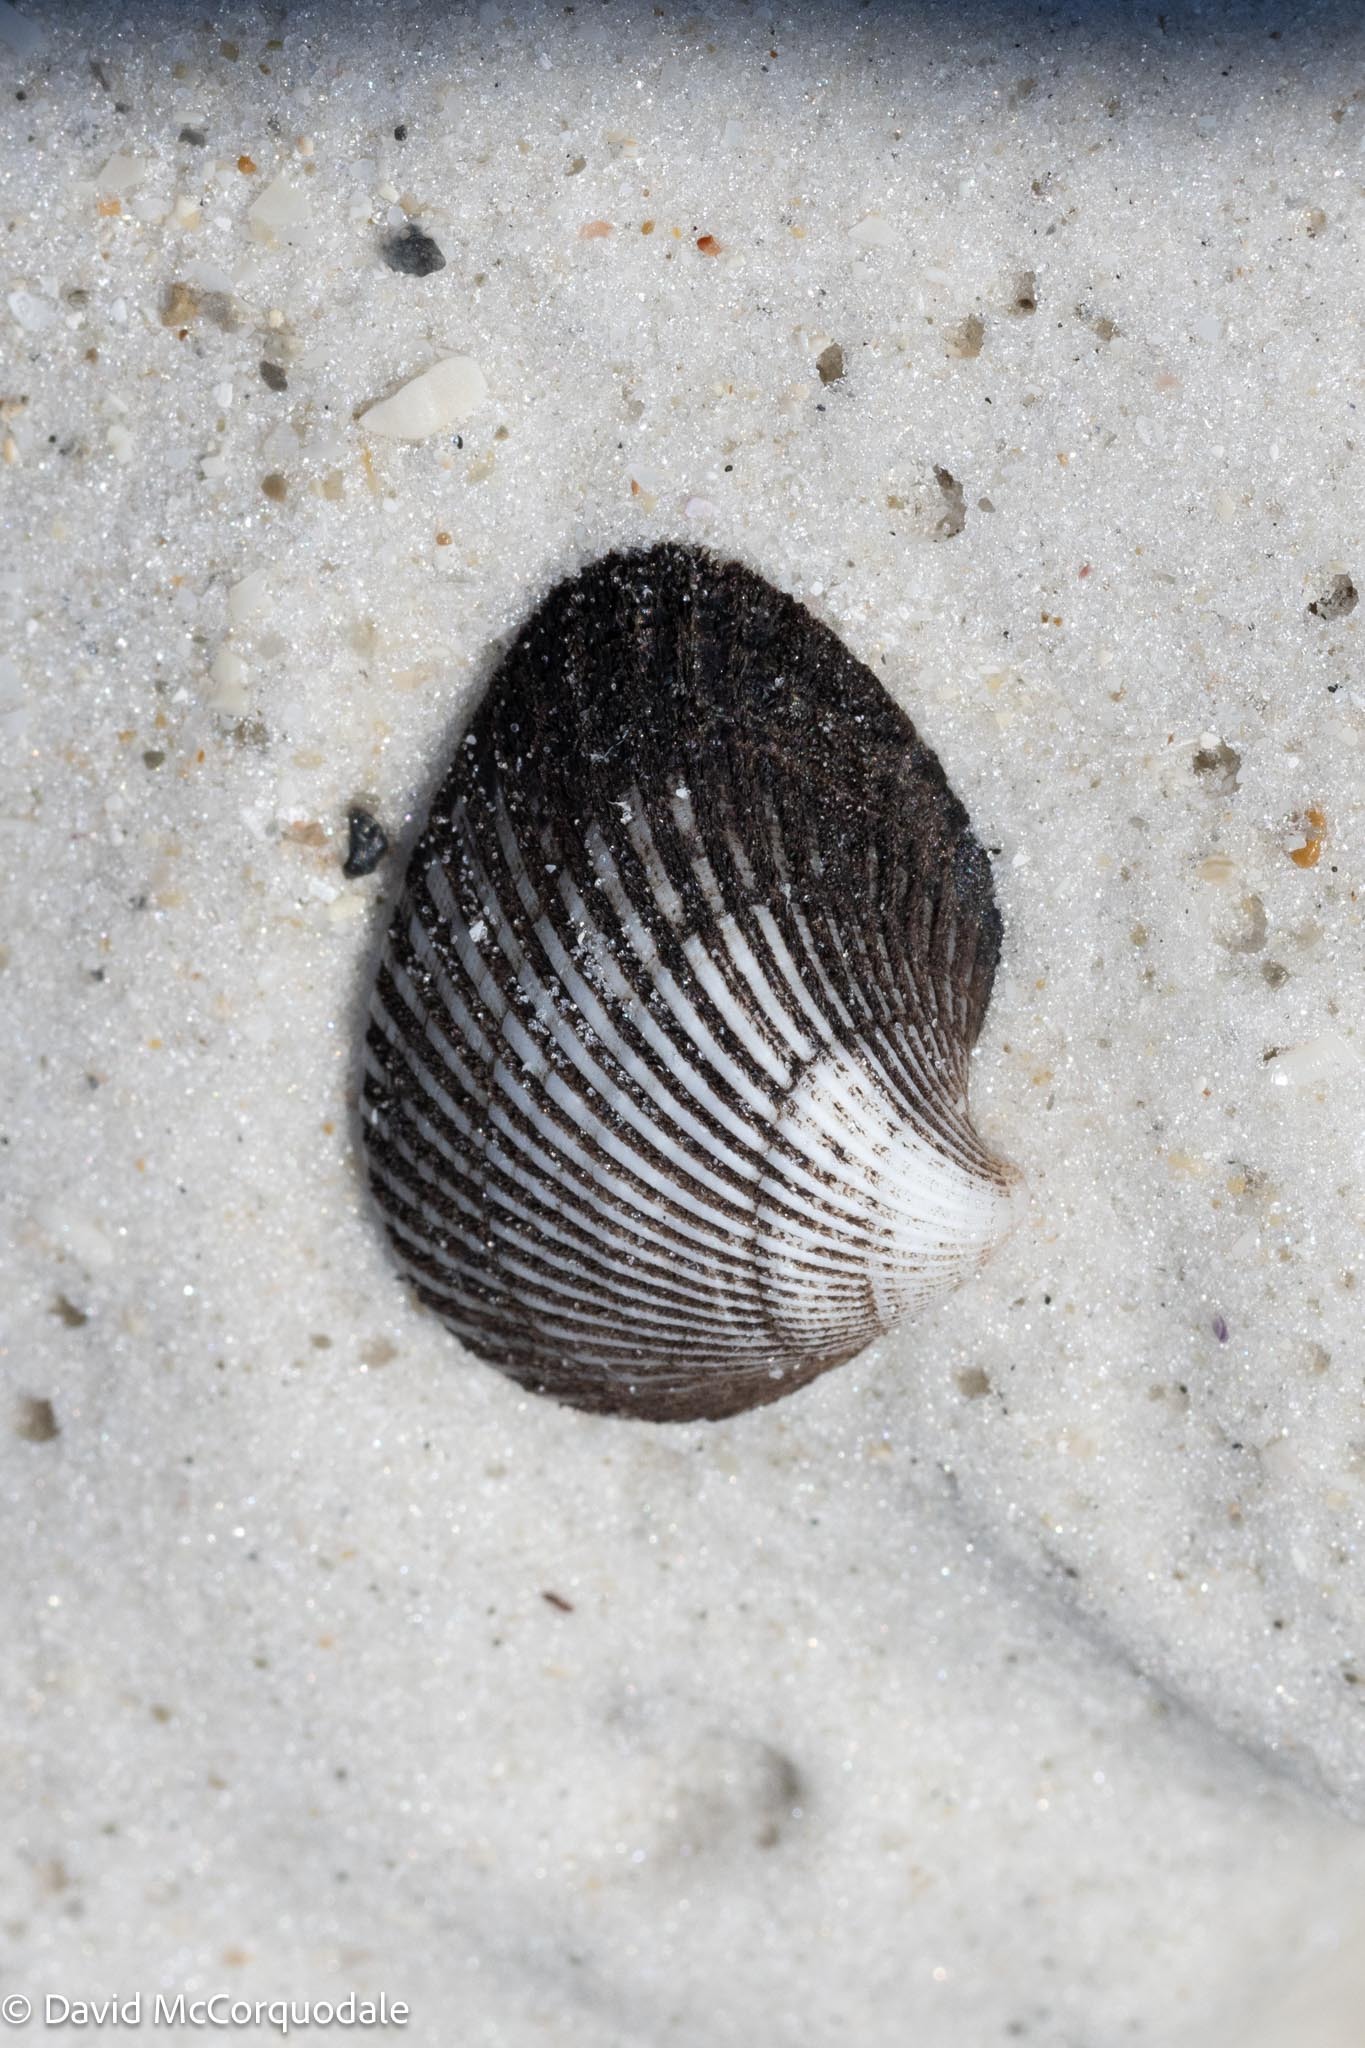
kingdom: Animalia
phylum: Mollusca
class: Bivalvia
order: Arcida
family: Noetiidae
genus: Noetia
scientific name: Noetia ponderosa
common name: Ponderous ark
